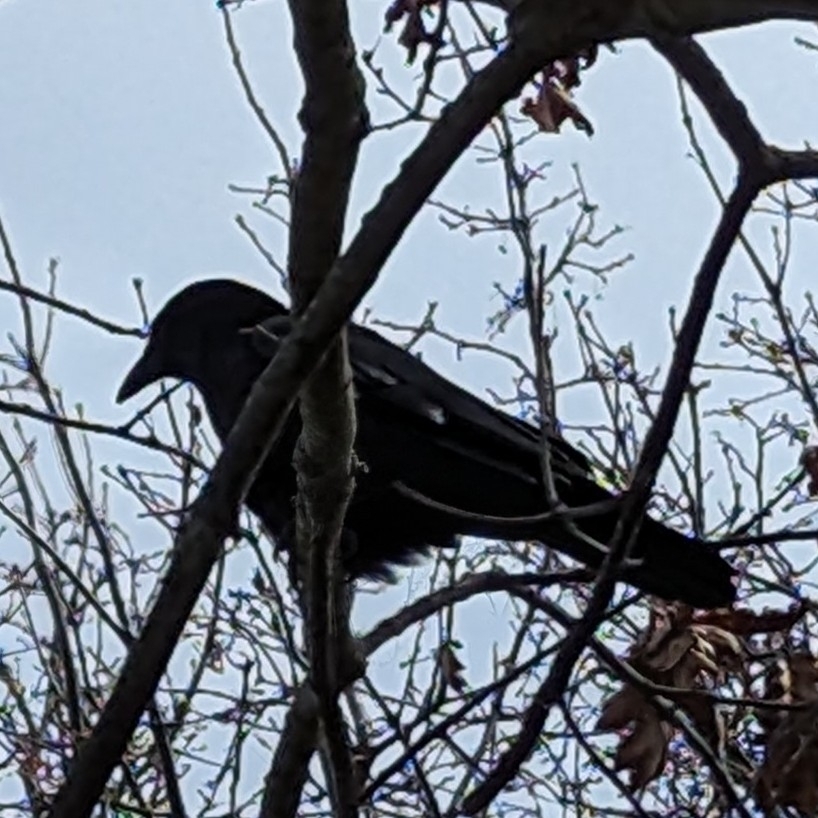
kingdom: Animalia
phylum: Chordata
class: Aves
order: Passeriformes
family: Corvidae
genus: Corvus
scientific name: Corvus brachyrhynchos
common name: American crow
